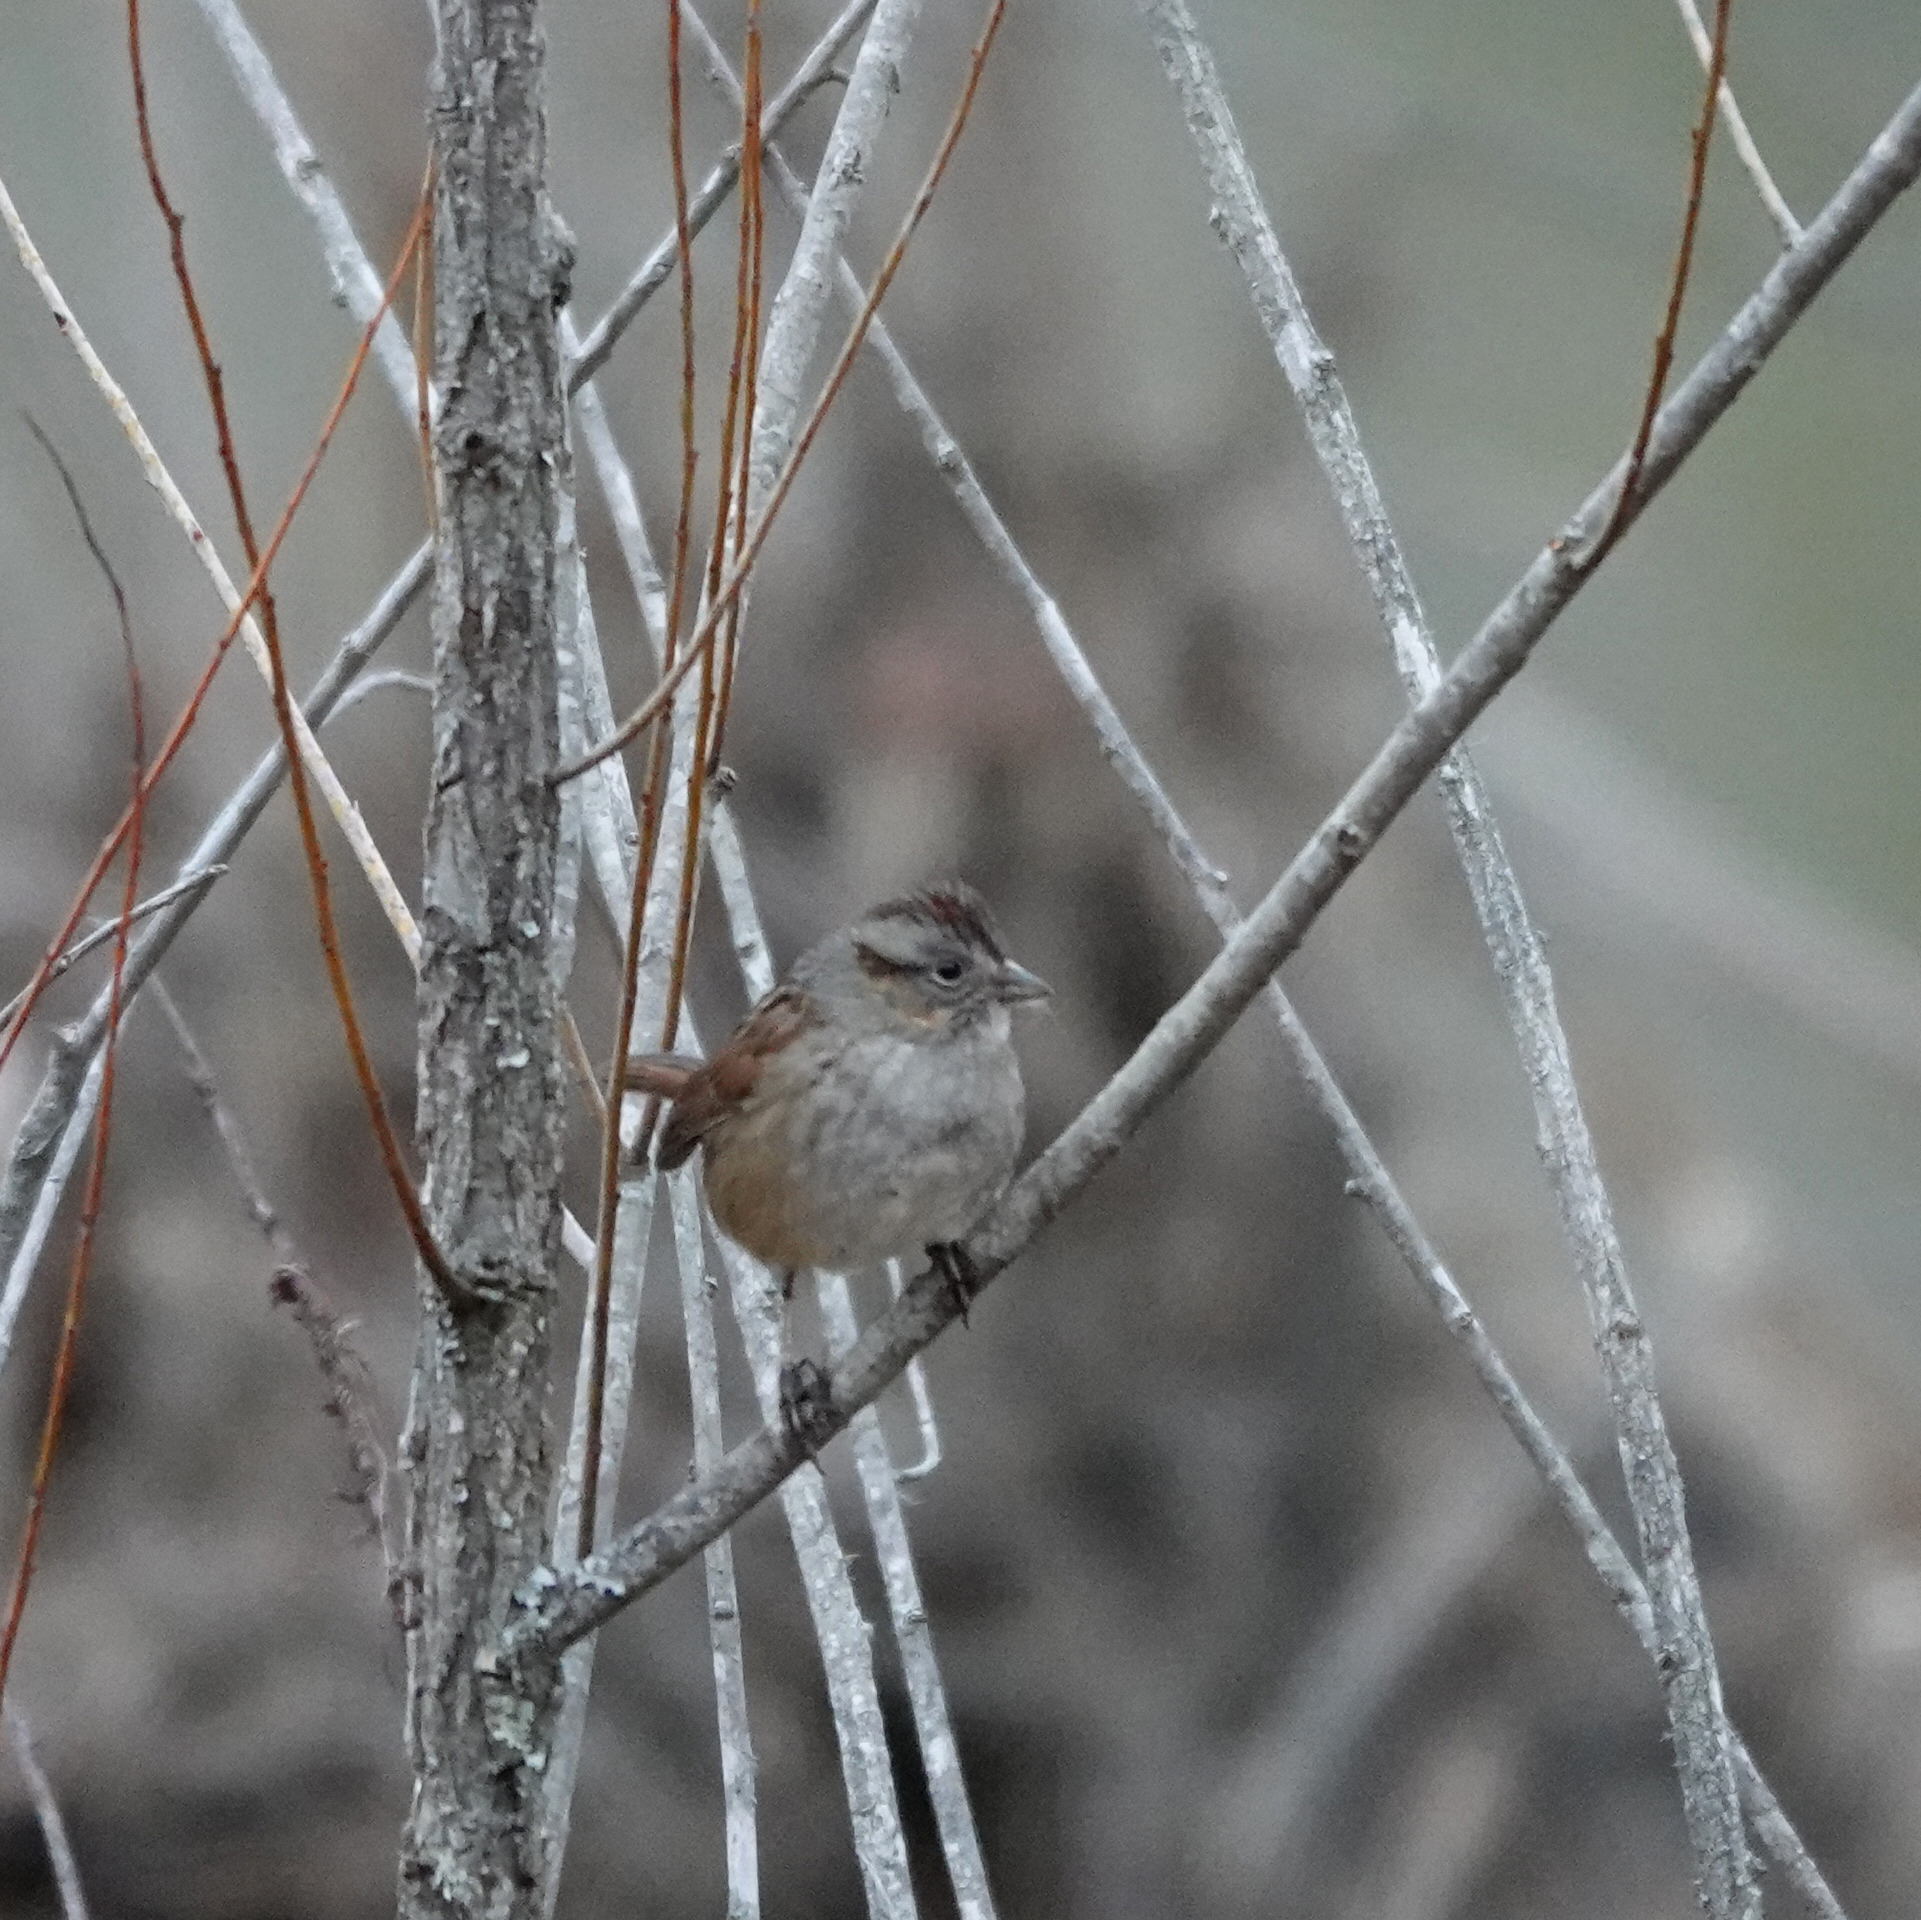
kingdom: Animalia
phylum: Chordata
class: Aves
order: Passeriformes
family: Passerellidae
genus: Melospiza
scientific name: Melospiza georgiana
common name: Swamp sparrow
